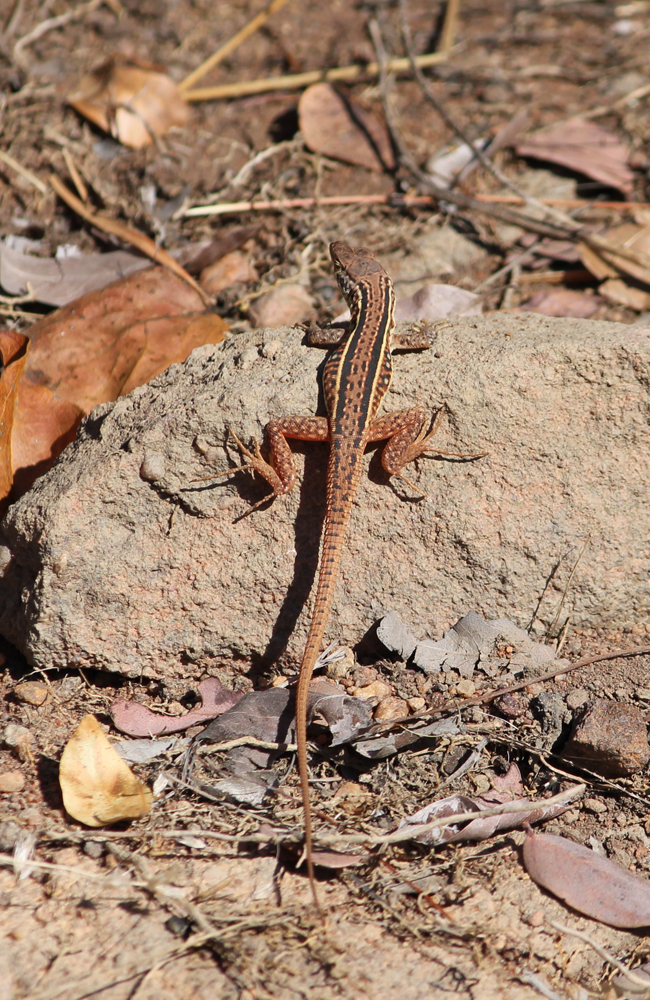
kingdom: Animalia
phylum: Chordata
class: Squamata
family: Lacertidae
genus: Pedioplanis
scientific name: Pedioplanis lineoocellata
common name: Spotted sand lizard
